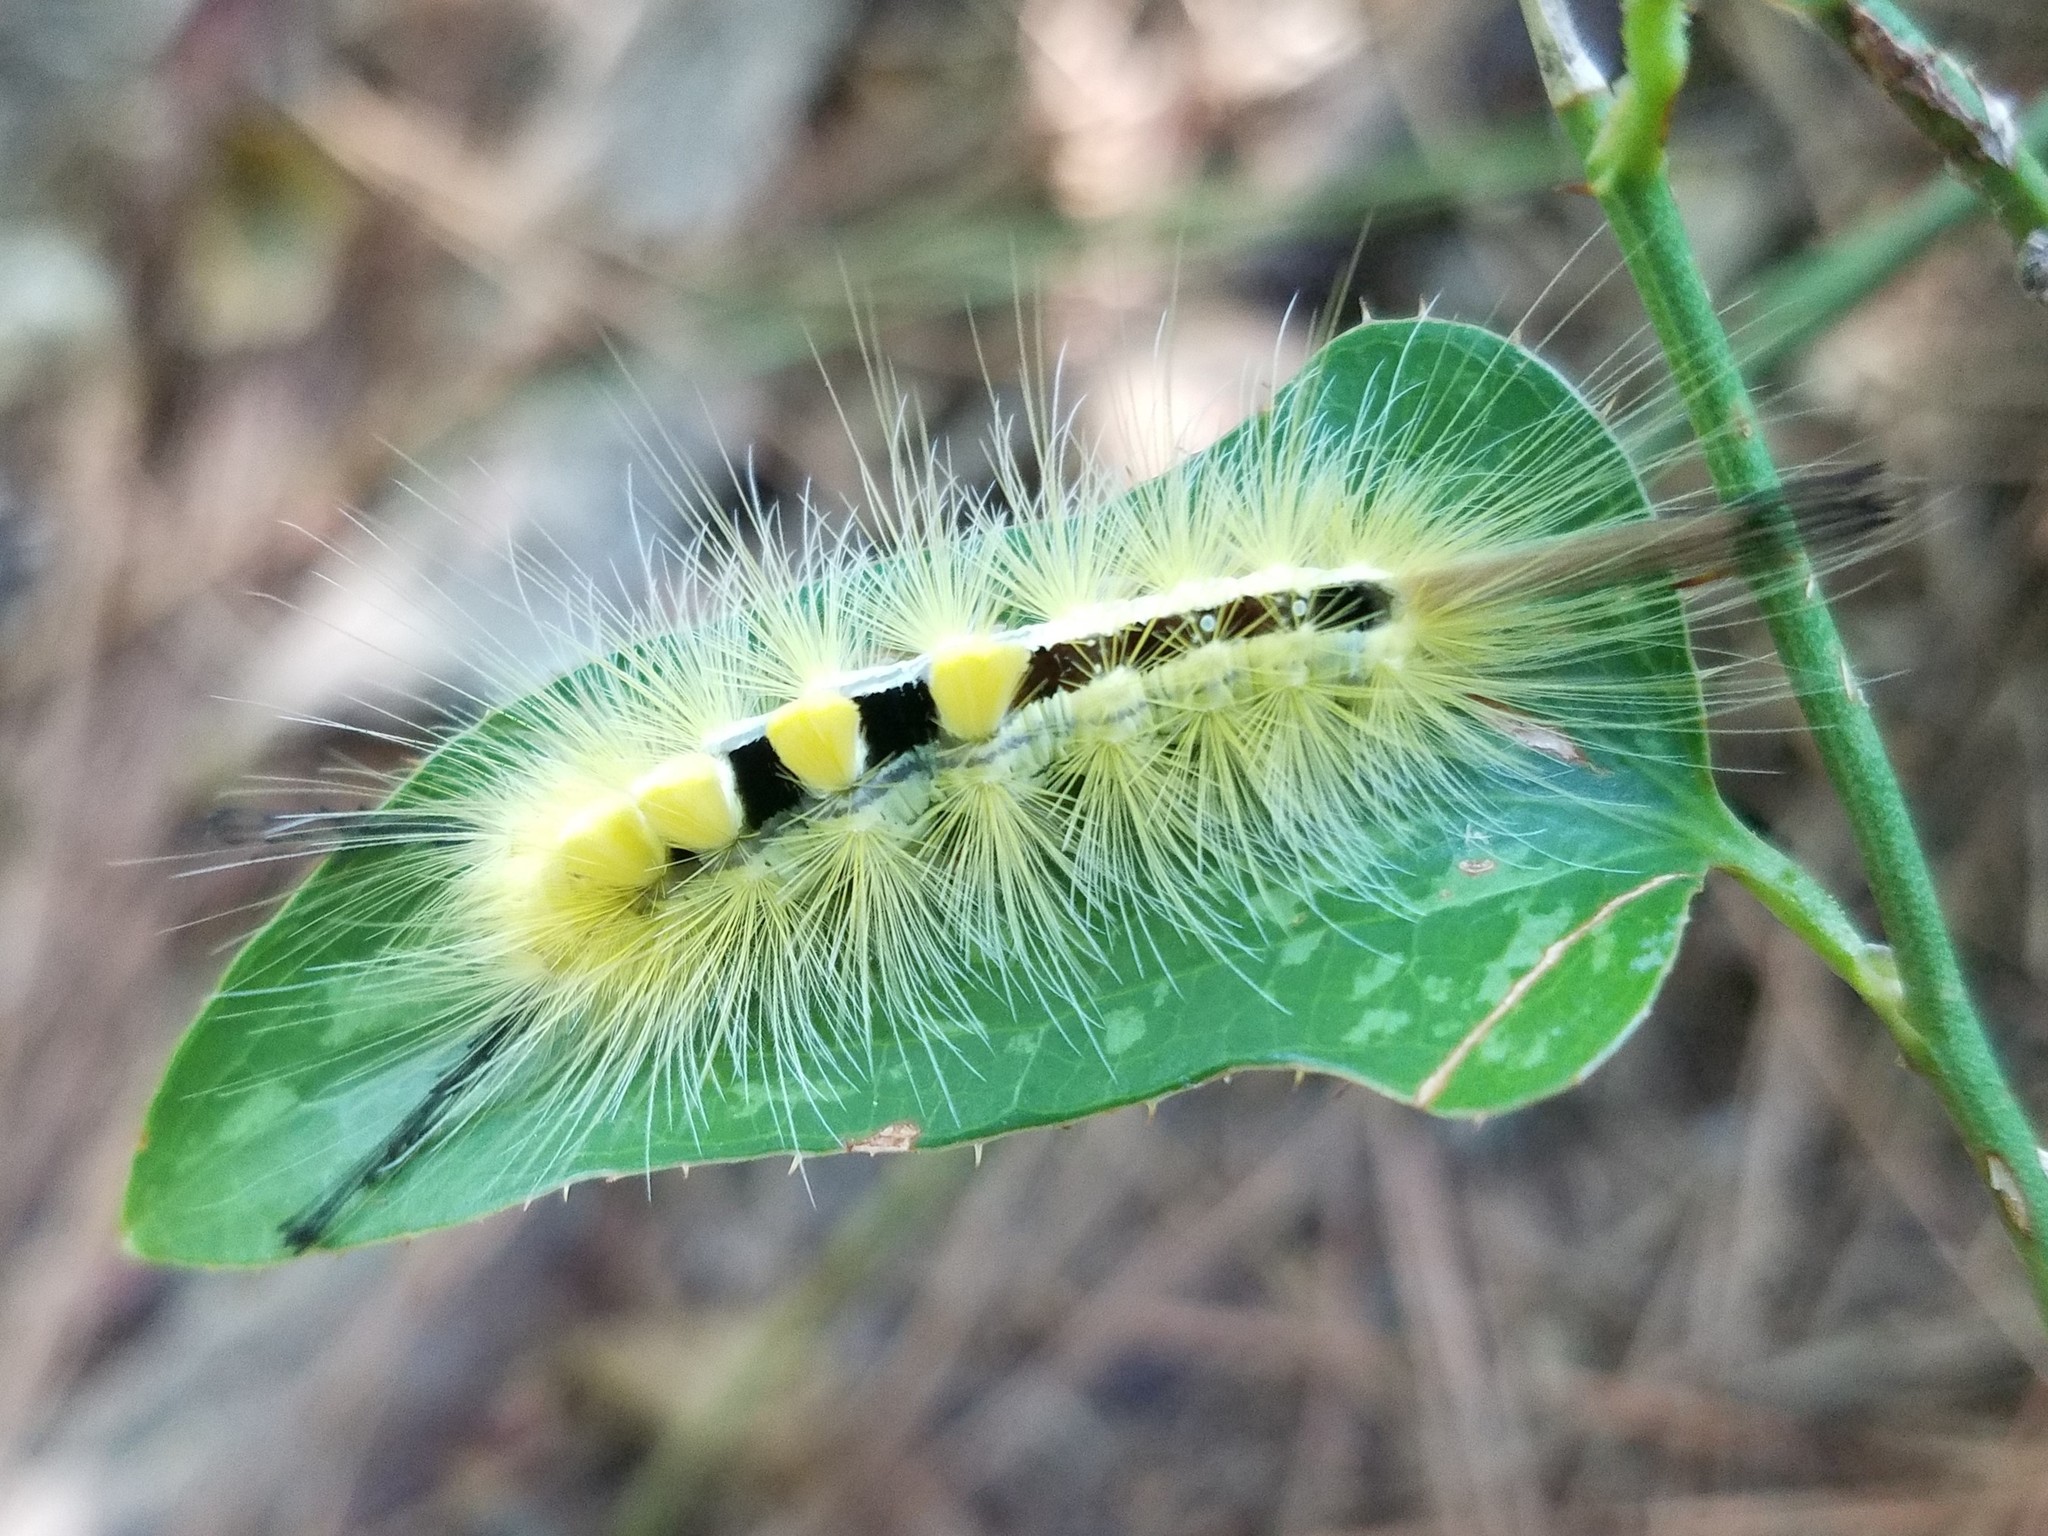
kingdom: Animalia
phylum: Arthropoda
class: Insecta
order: Lepidoptera
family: Erebidae
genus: Orgyia
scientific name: Orgyia definita
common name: Definite tussock moth
